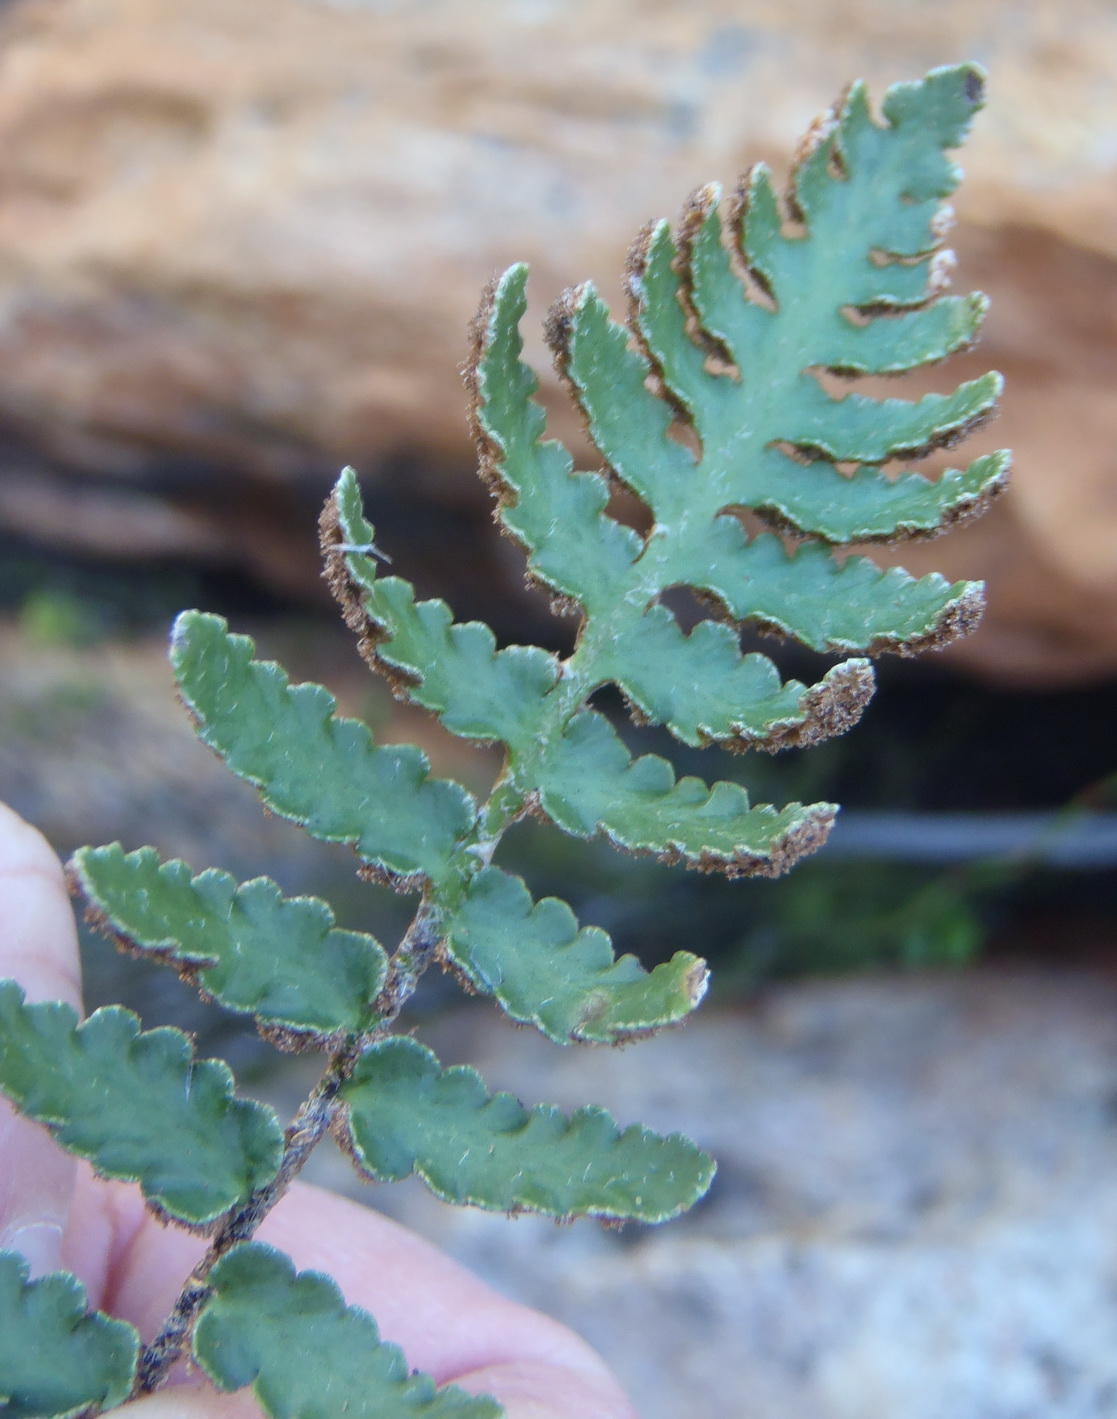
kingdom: Plantae
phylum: Tracheophyta
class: Polypodiopsida
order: Polypodiales
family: Aspleniaceae
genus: Asplenium
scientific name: Asplenium cordatum
